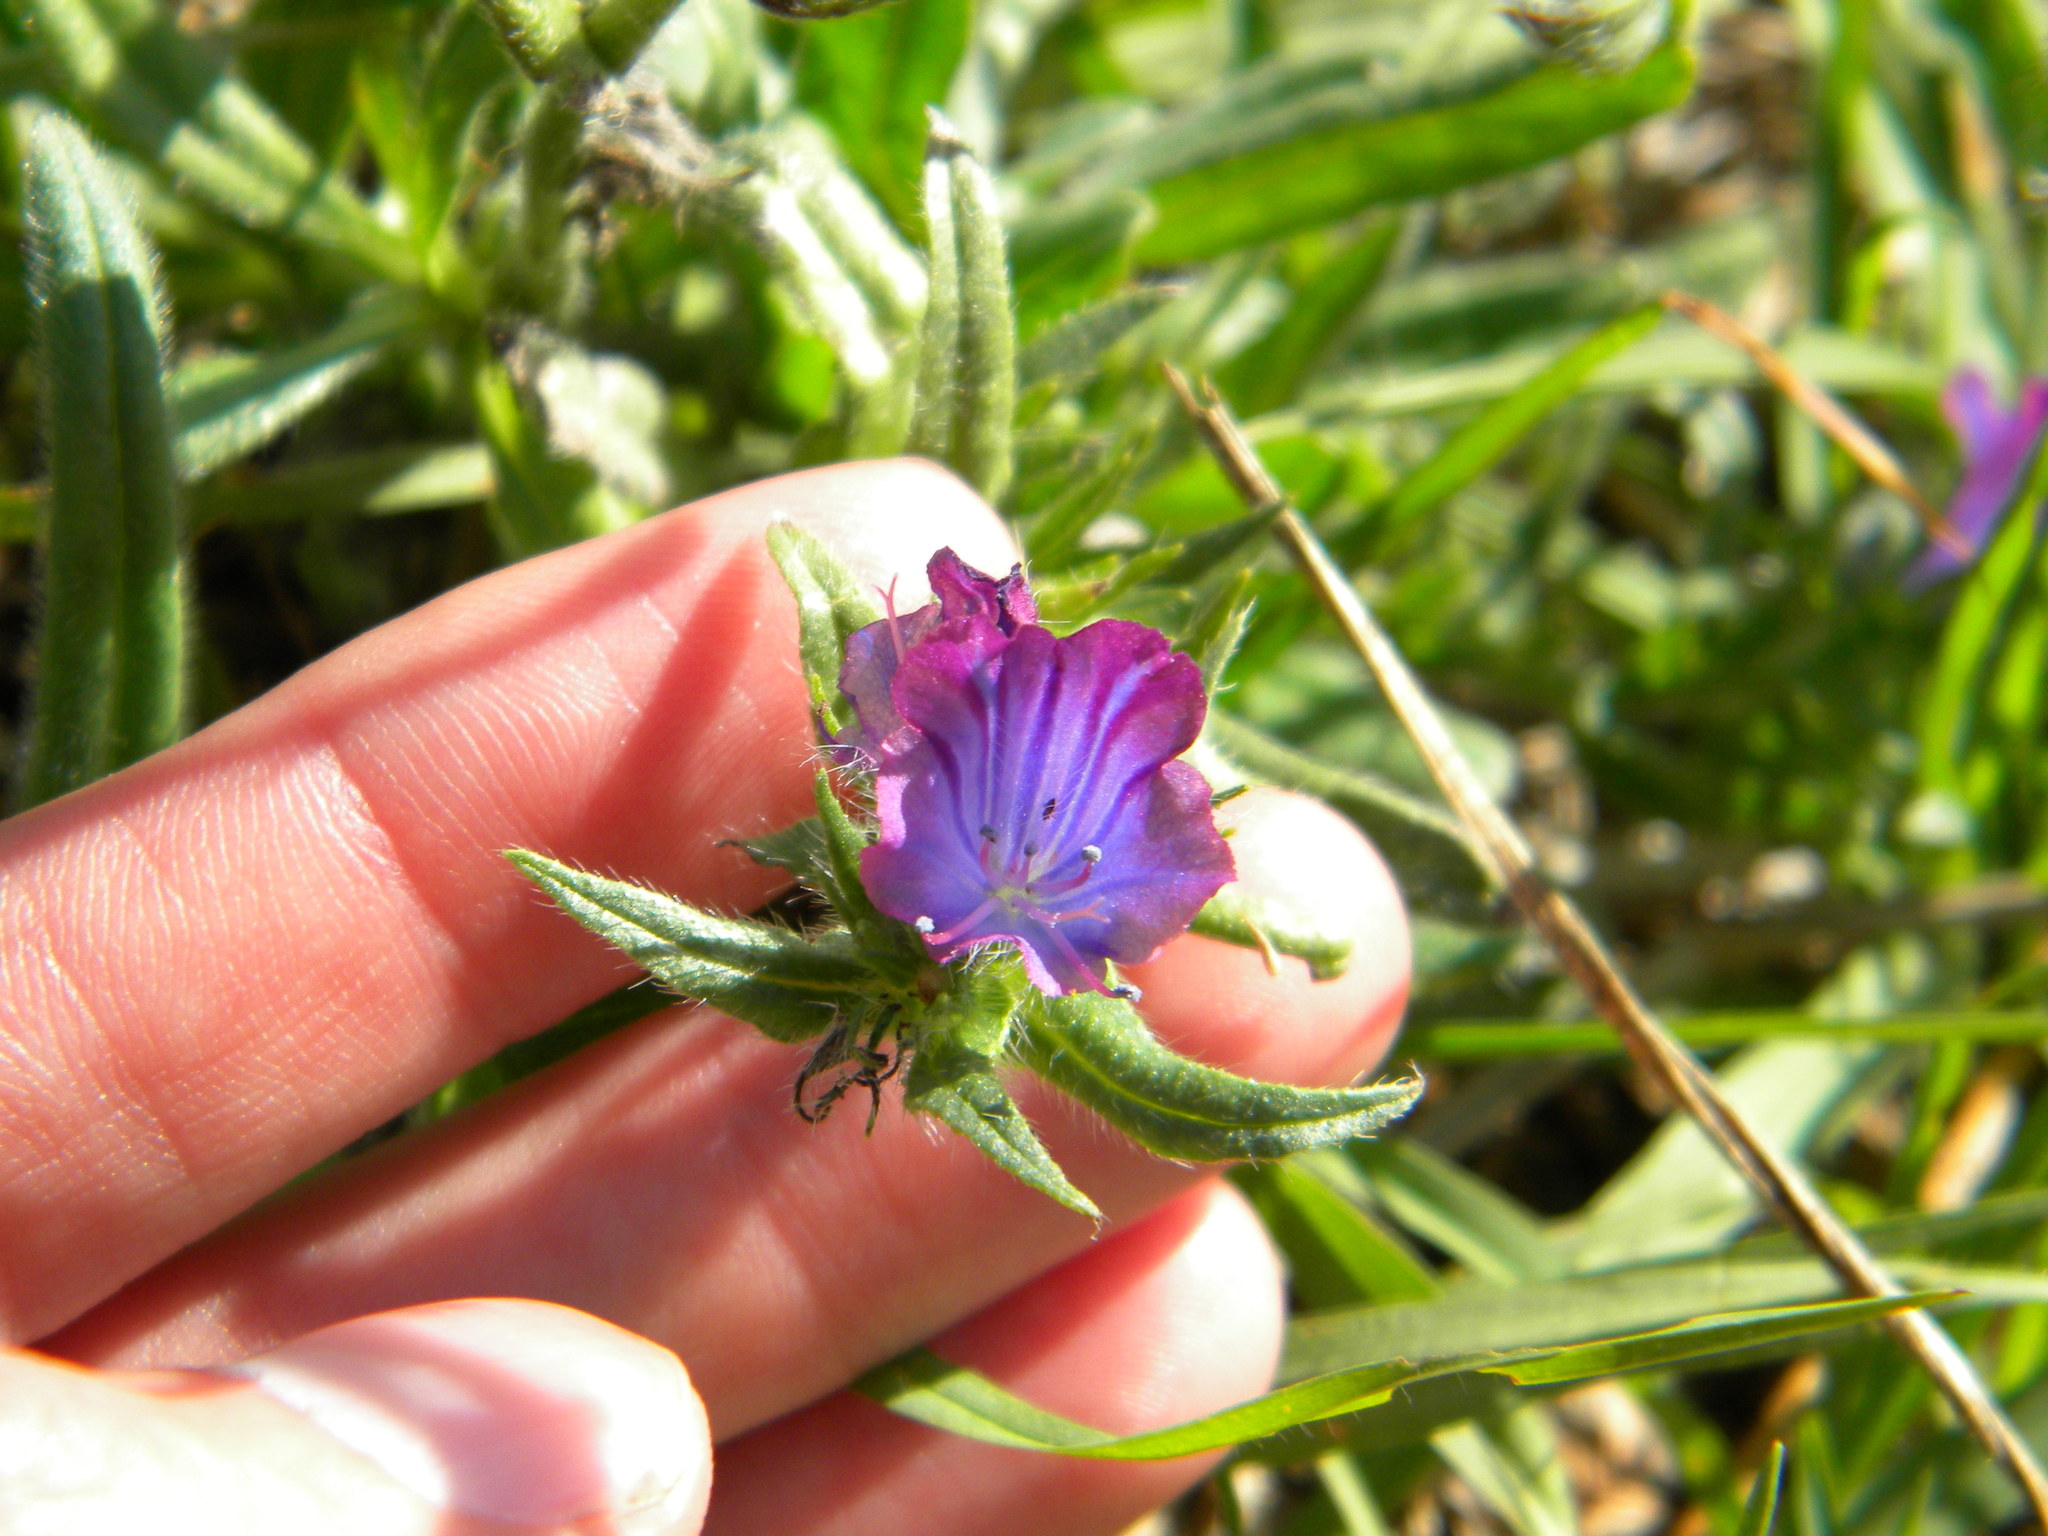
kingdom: Plantae
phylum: Tracheophyta
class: Magnoliopsida
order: Boraginales
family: Boraginaceae
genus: Echium
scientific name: Echium plantagineum
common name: Purple viper's-bugloss
